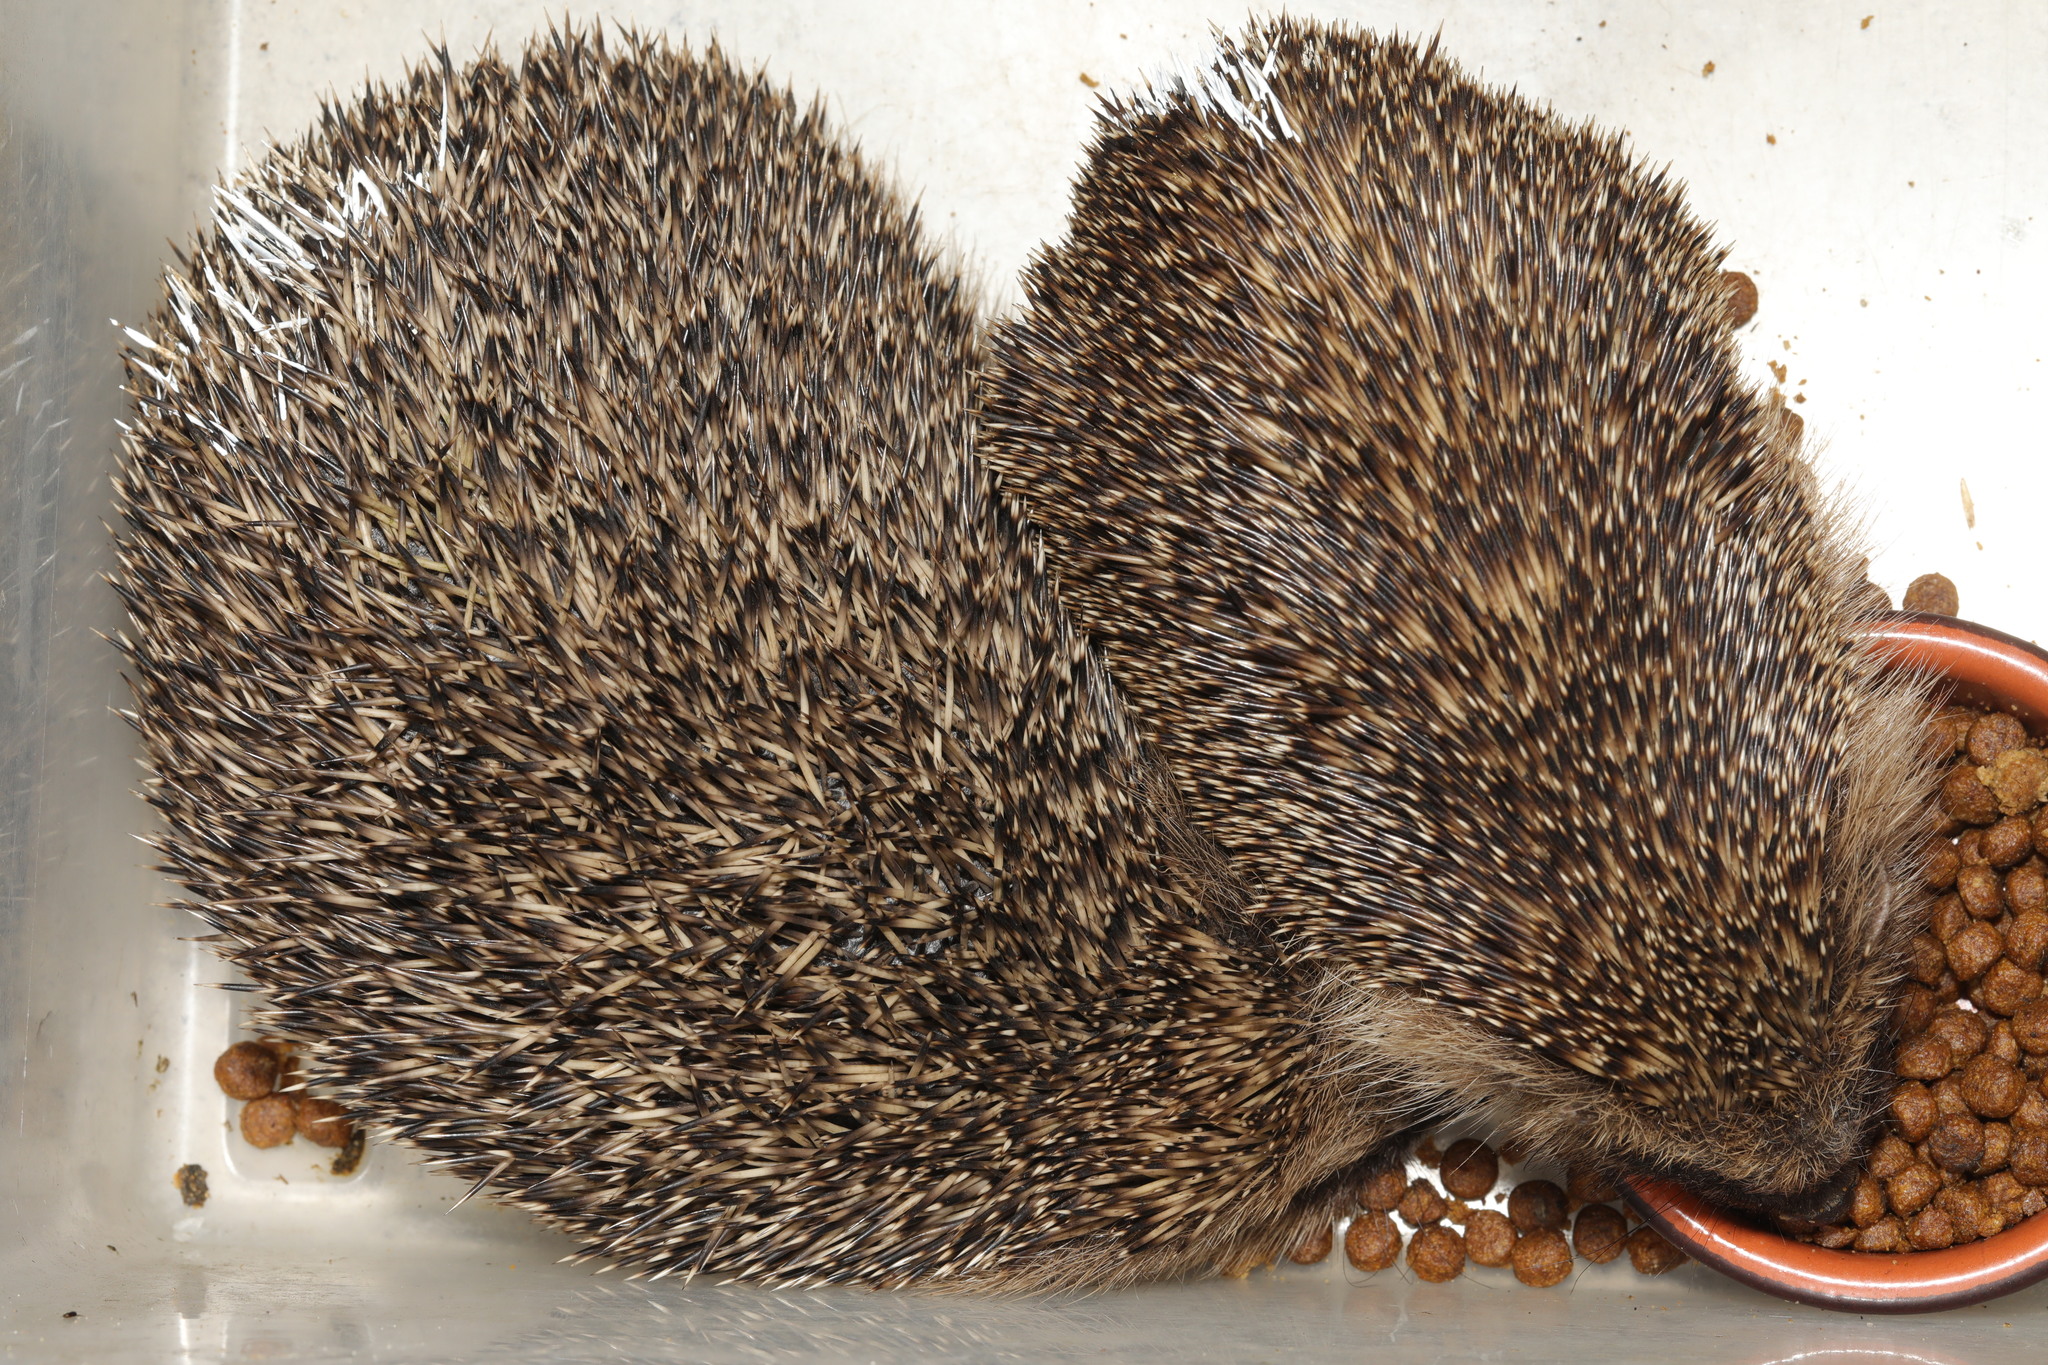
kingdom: Animalia
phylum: Chordata
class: Mammalia
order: Erinaceomorpha
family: Erinaceidae
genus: Erinaceus
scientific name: Erinaceus europaeus
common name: West european hedgehog
